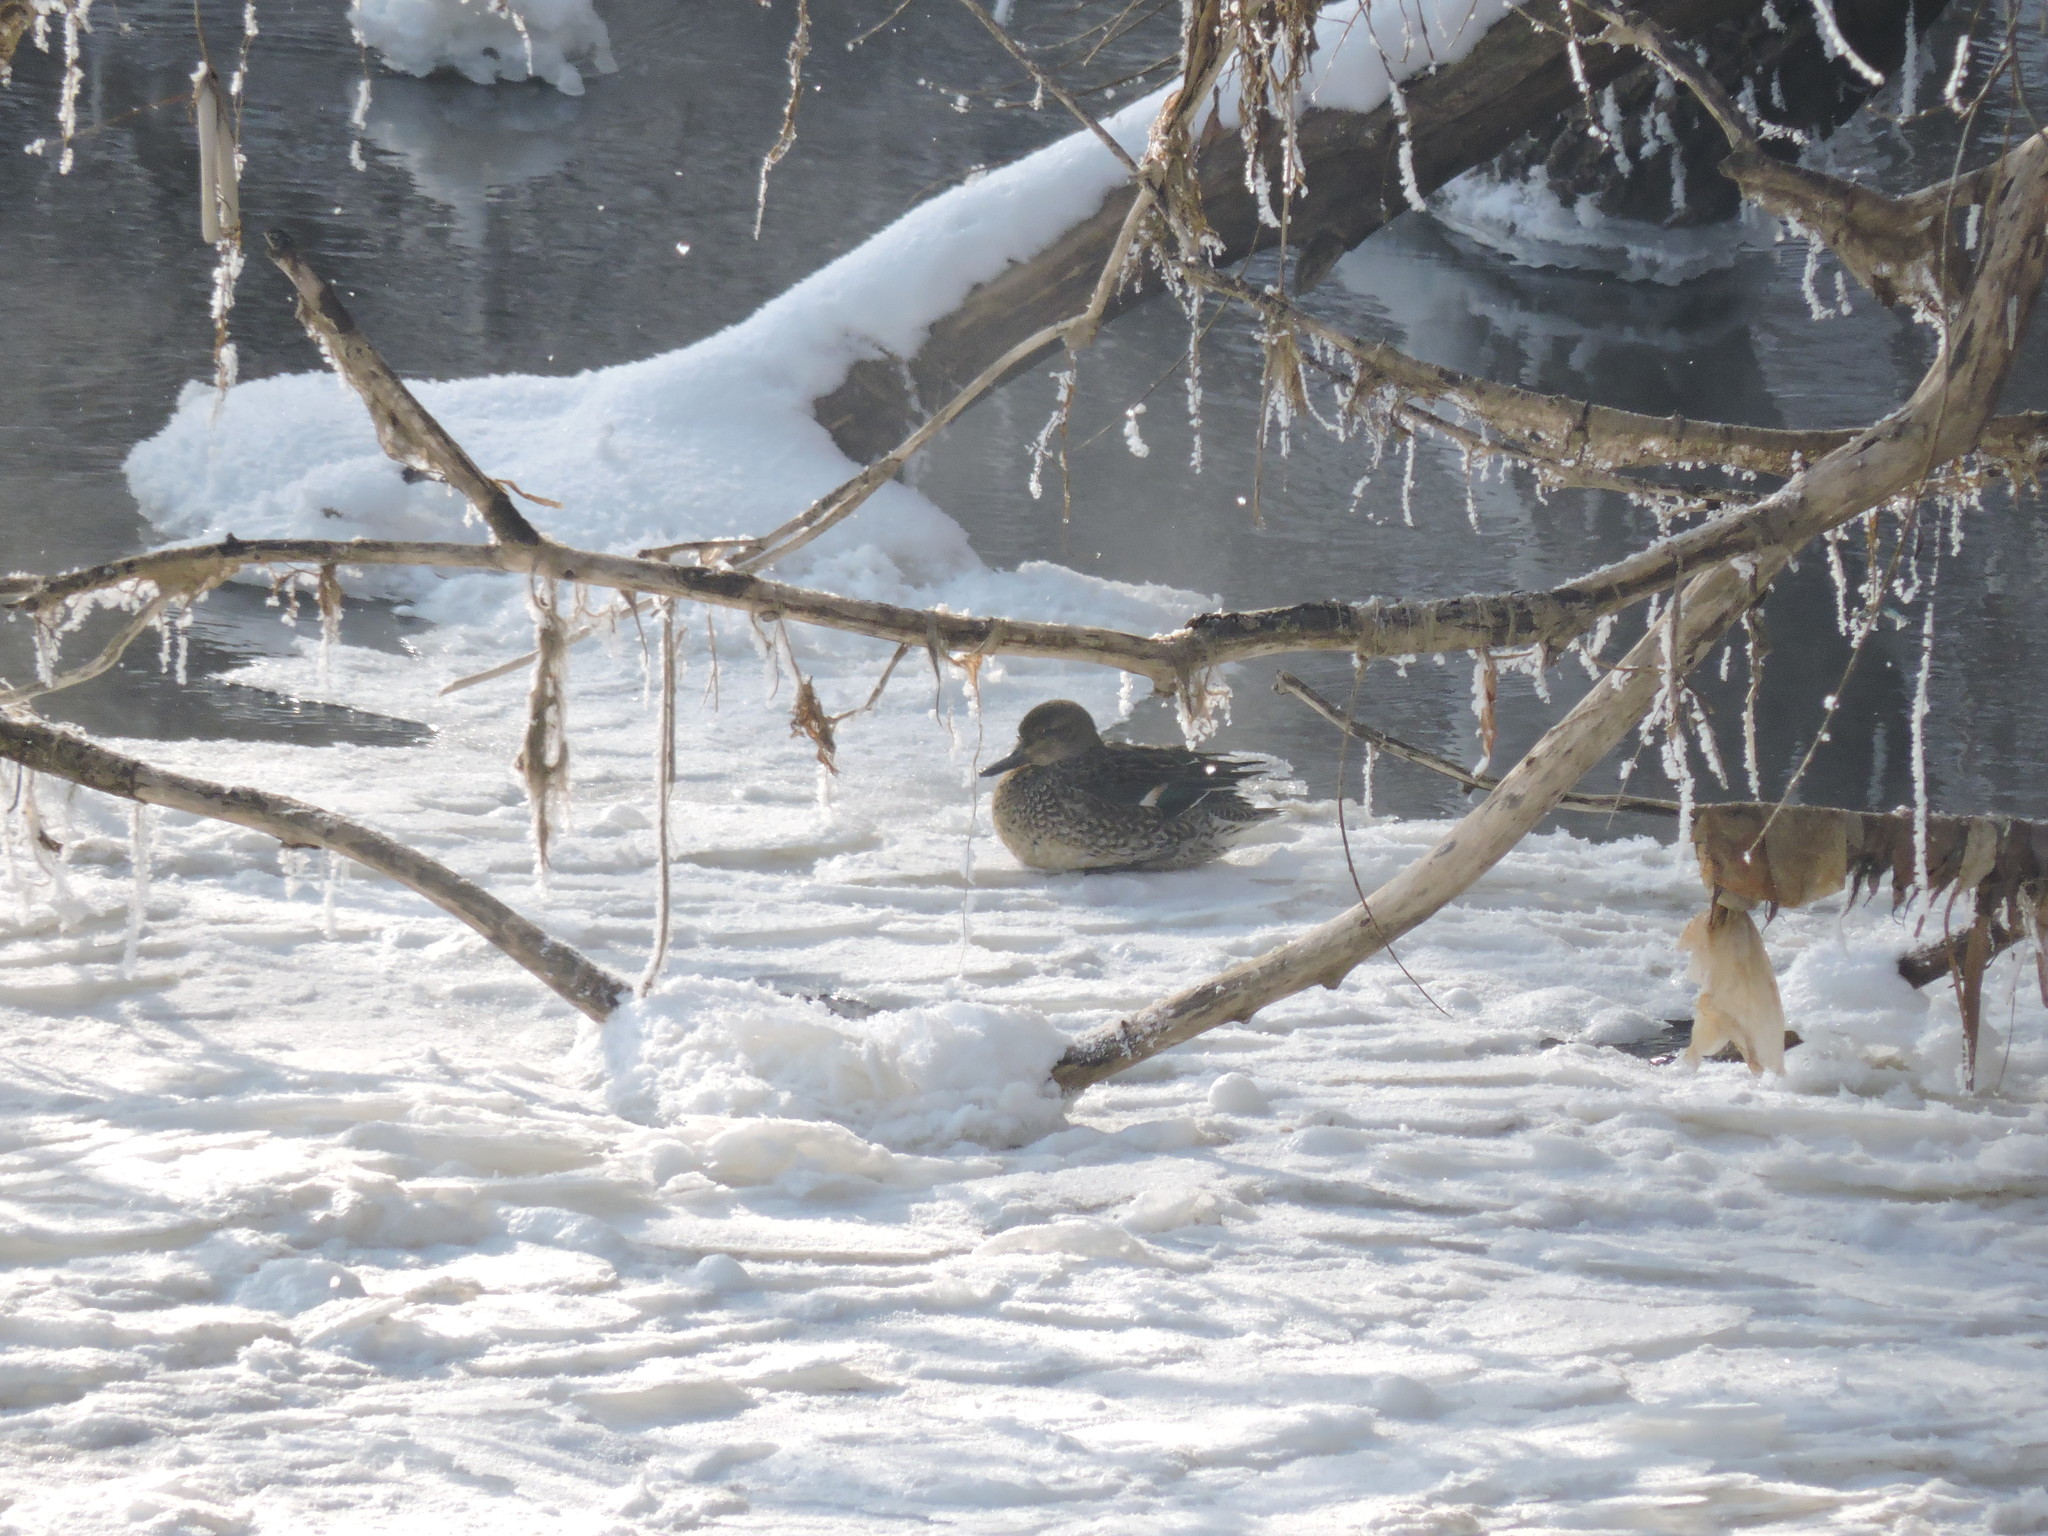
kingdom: Animalia
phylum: Chordata
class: Aves
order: Anseriformes
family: Anatidae
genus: Anas
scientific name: Anas crecca
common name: Eurasian teal
